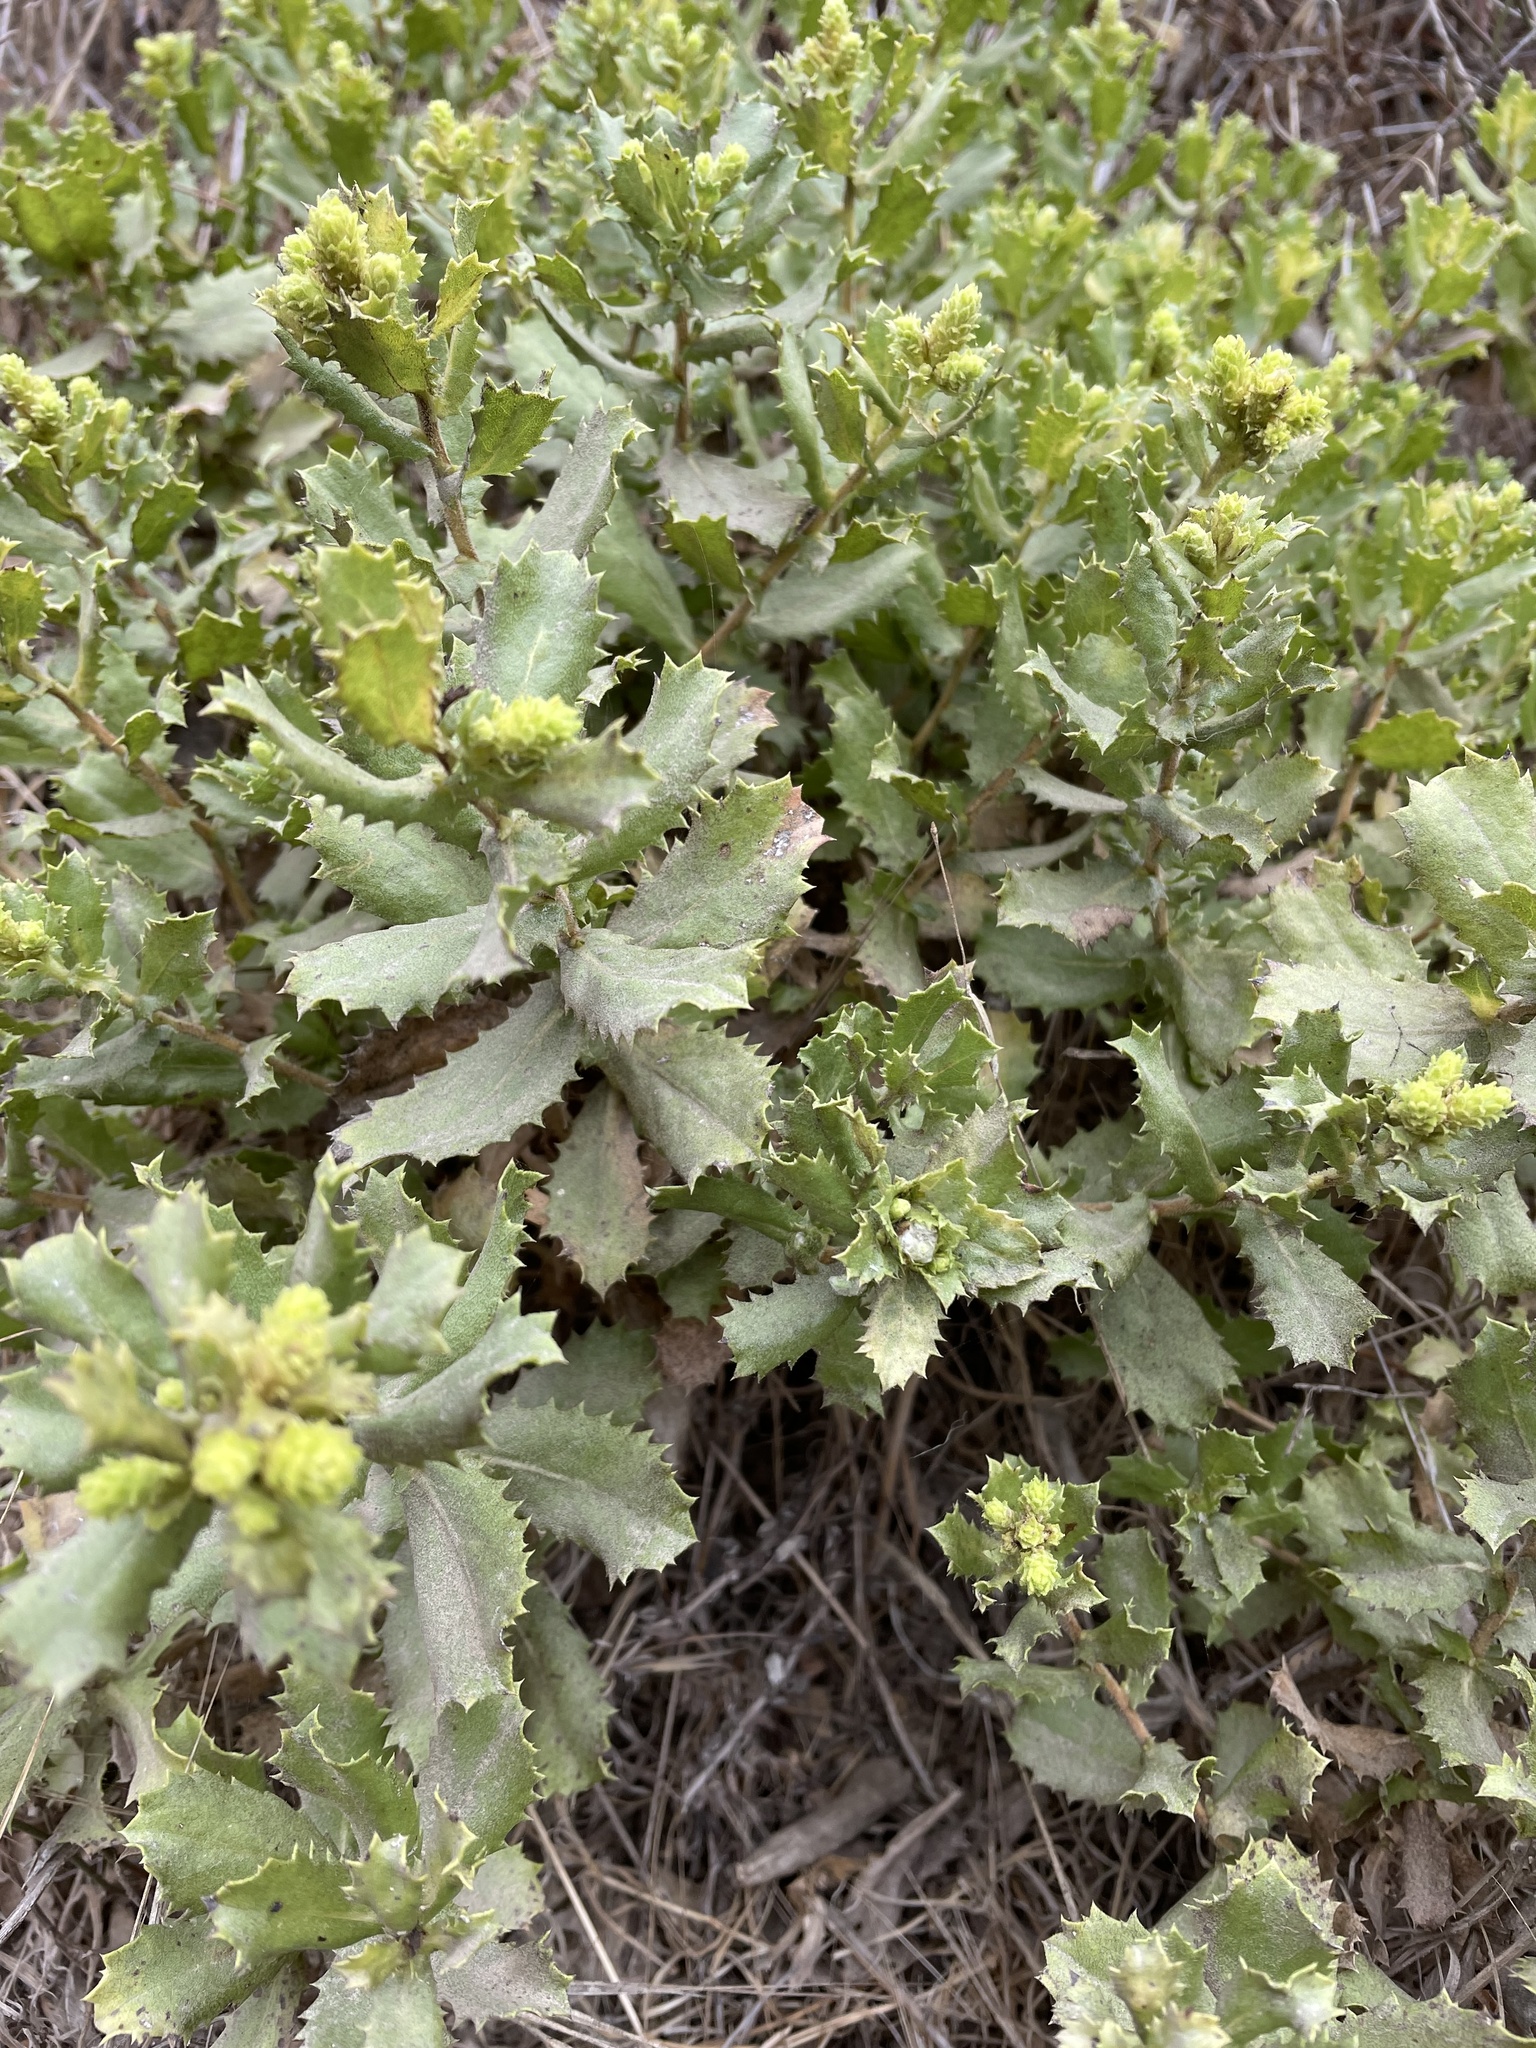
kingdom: Plantae
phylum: Tracheophyta
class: Magnoliopsida
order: Asterales
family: Asteraceae
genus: Hazardia
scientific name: Hazardia squarrosa
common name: Saw-tooth goldenbush
